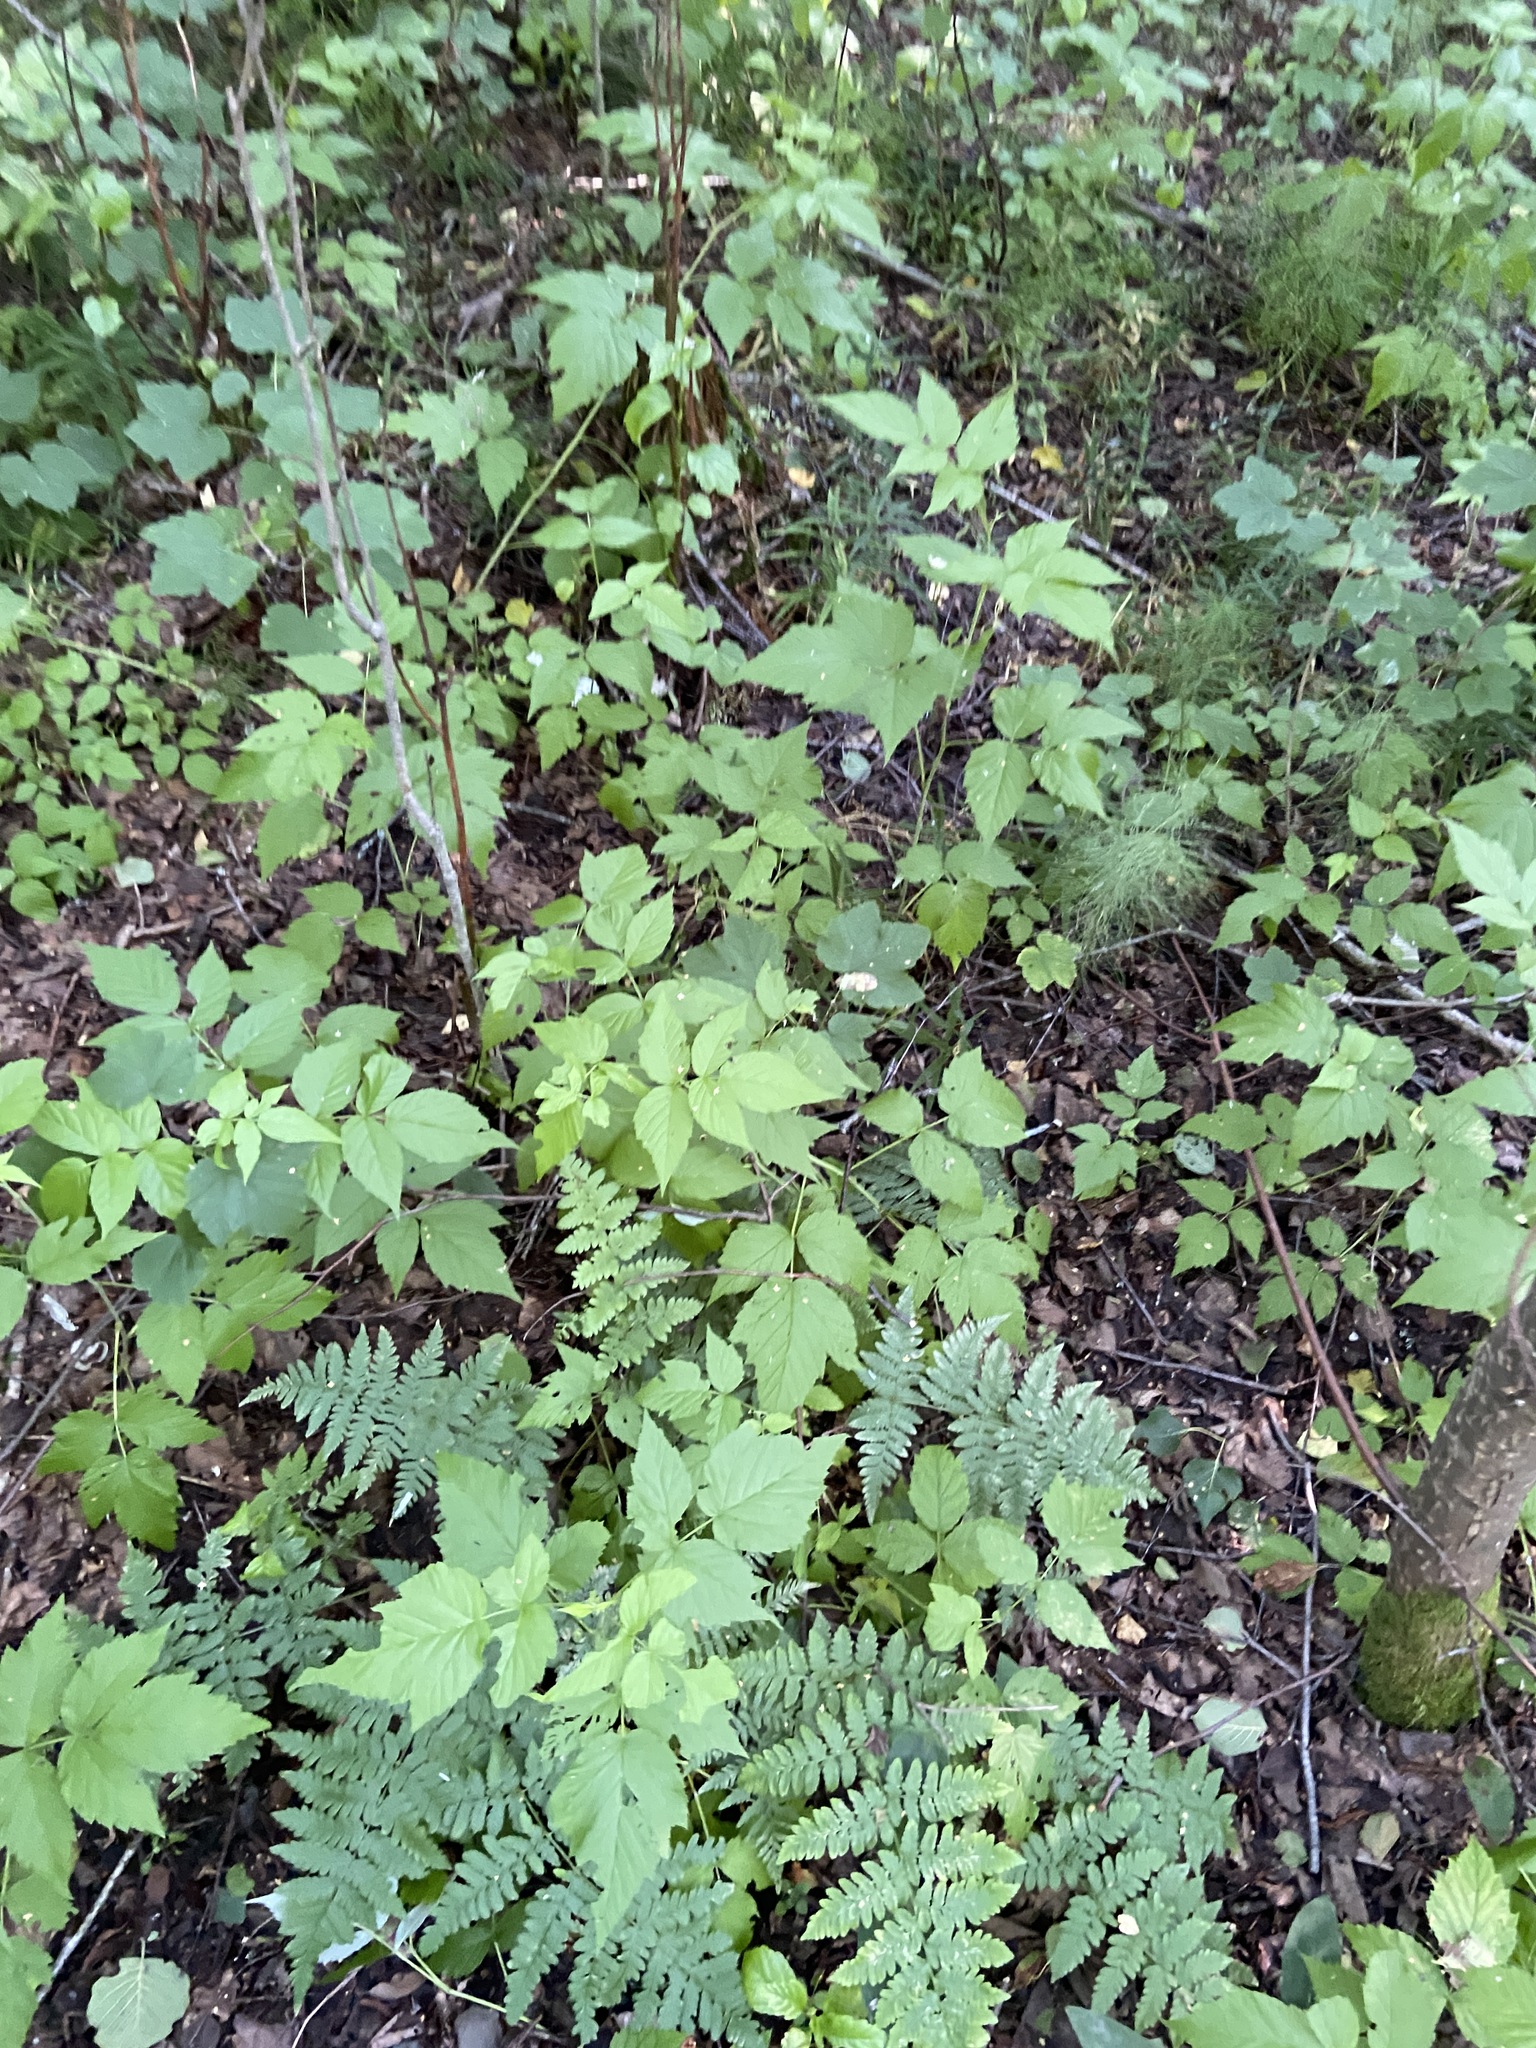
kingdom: Plantae
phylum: Tracheophyta
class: Polypodiopsida
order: Polypodiales
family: Dryopteridaceae
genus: Dryopteris
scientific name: Dryopteris carthusiana
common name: Narrow buckler-fern
